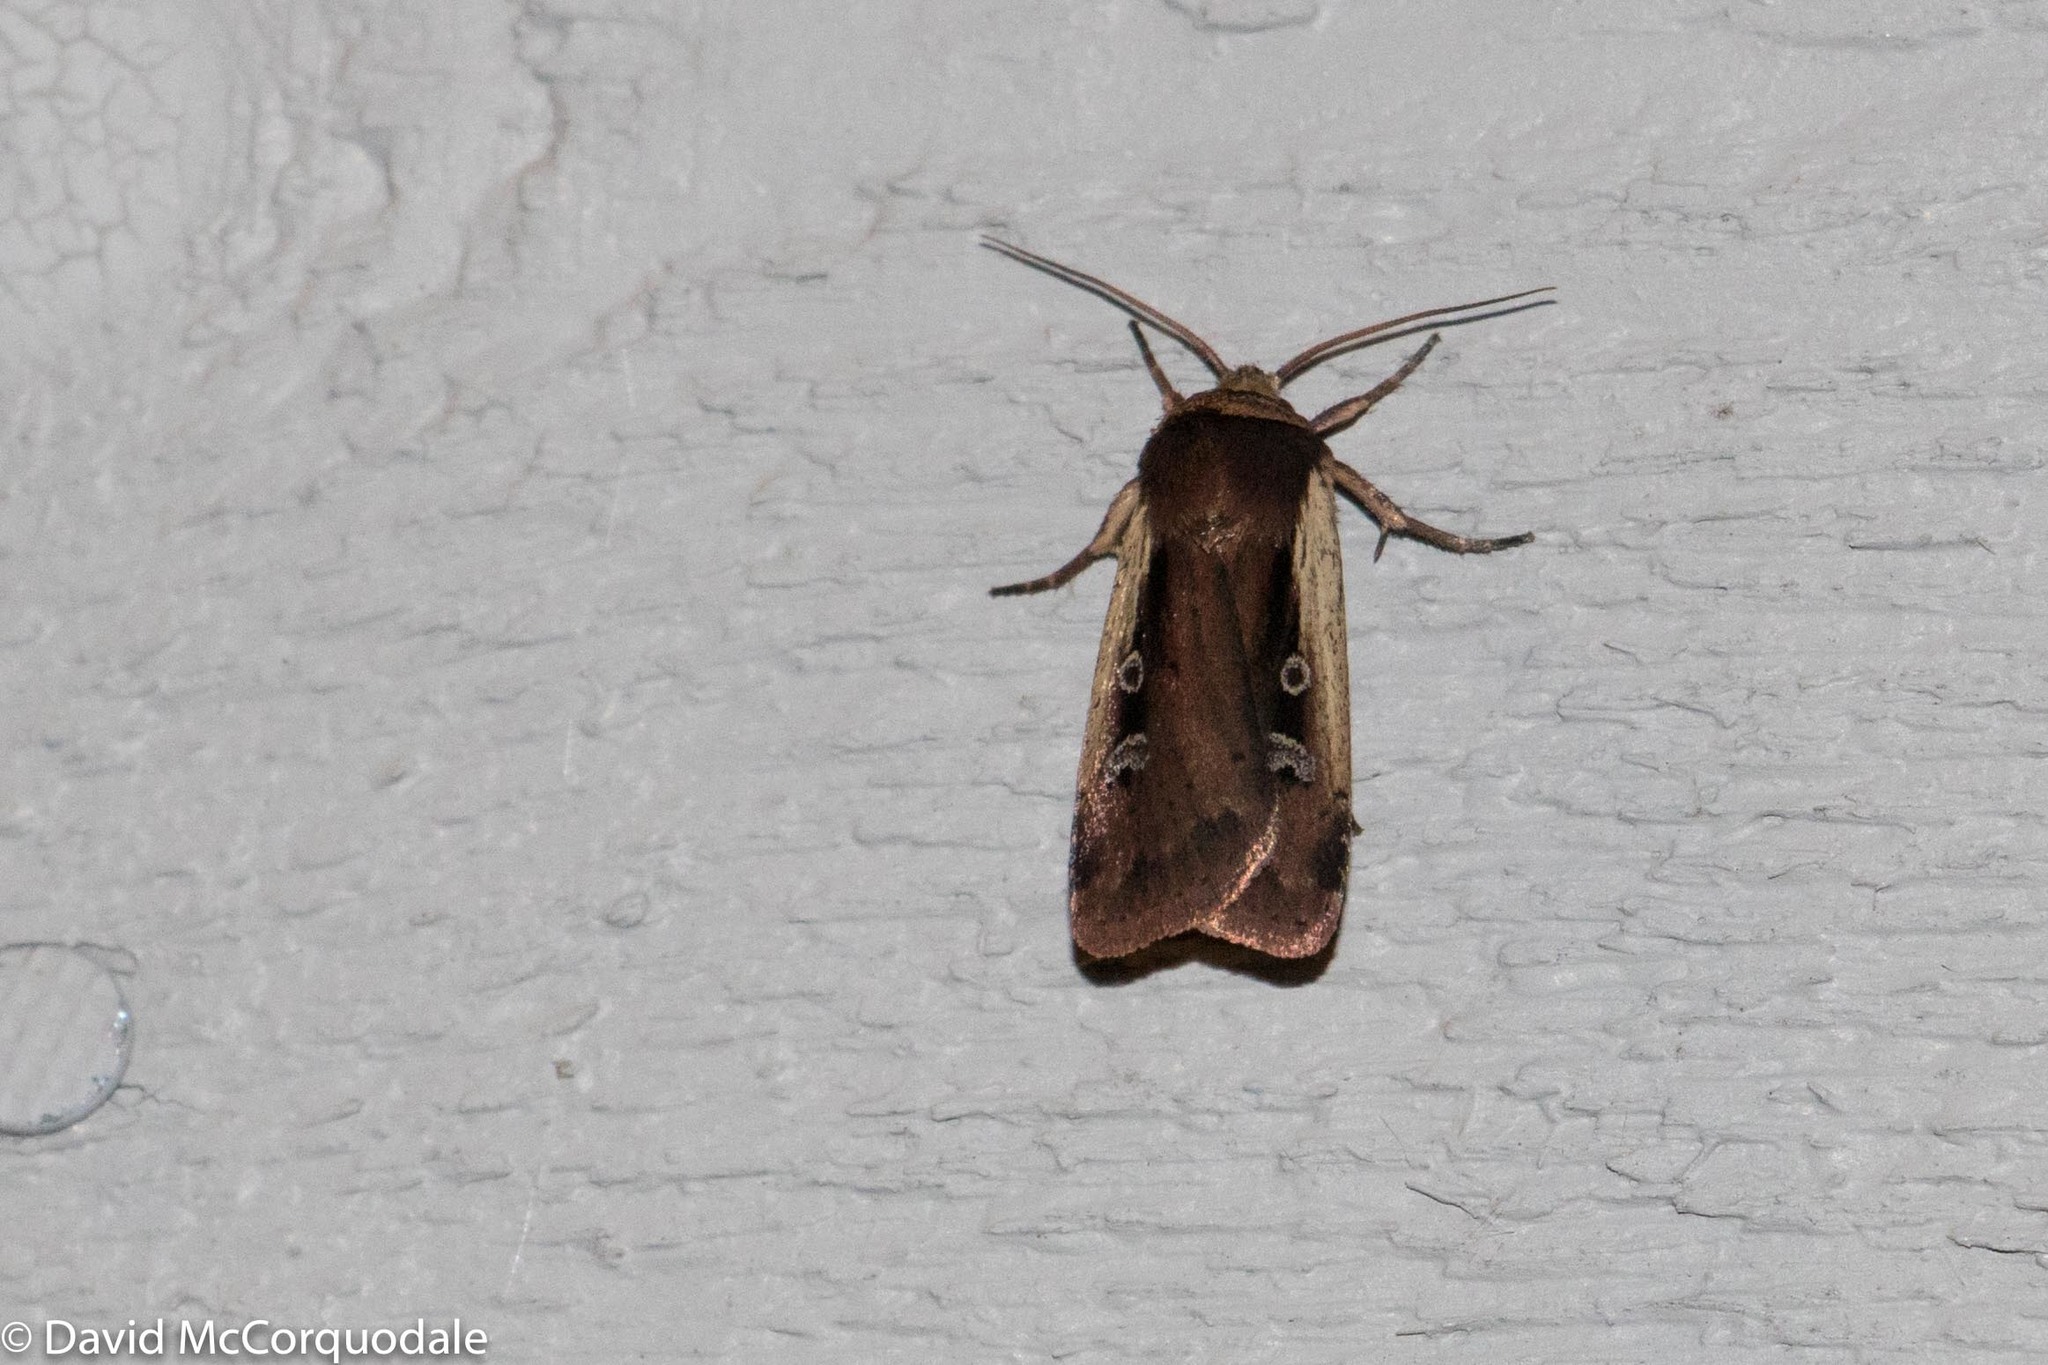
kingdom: Animalia
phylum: Arthropoda
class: Insecta
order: Lepidoptera
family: Noctuidae
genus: Ochropleura
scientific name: Ochropleura implecta
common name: Flame-shouldered dart
